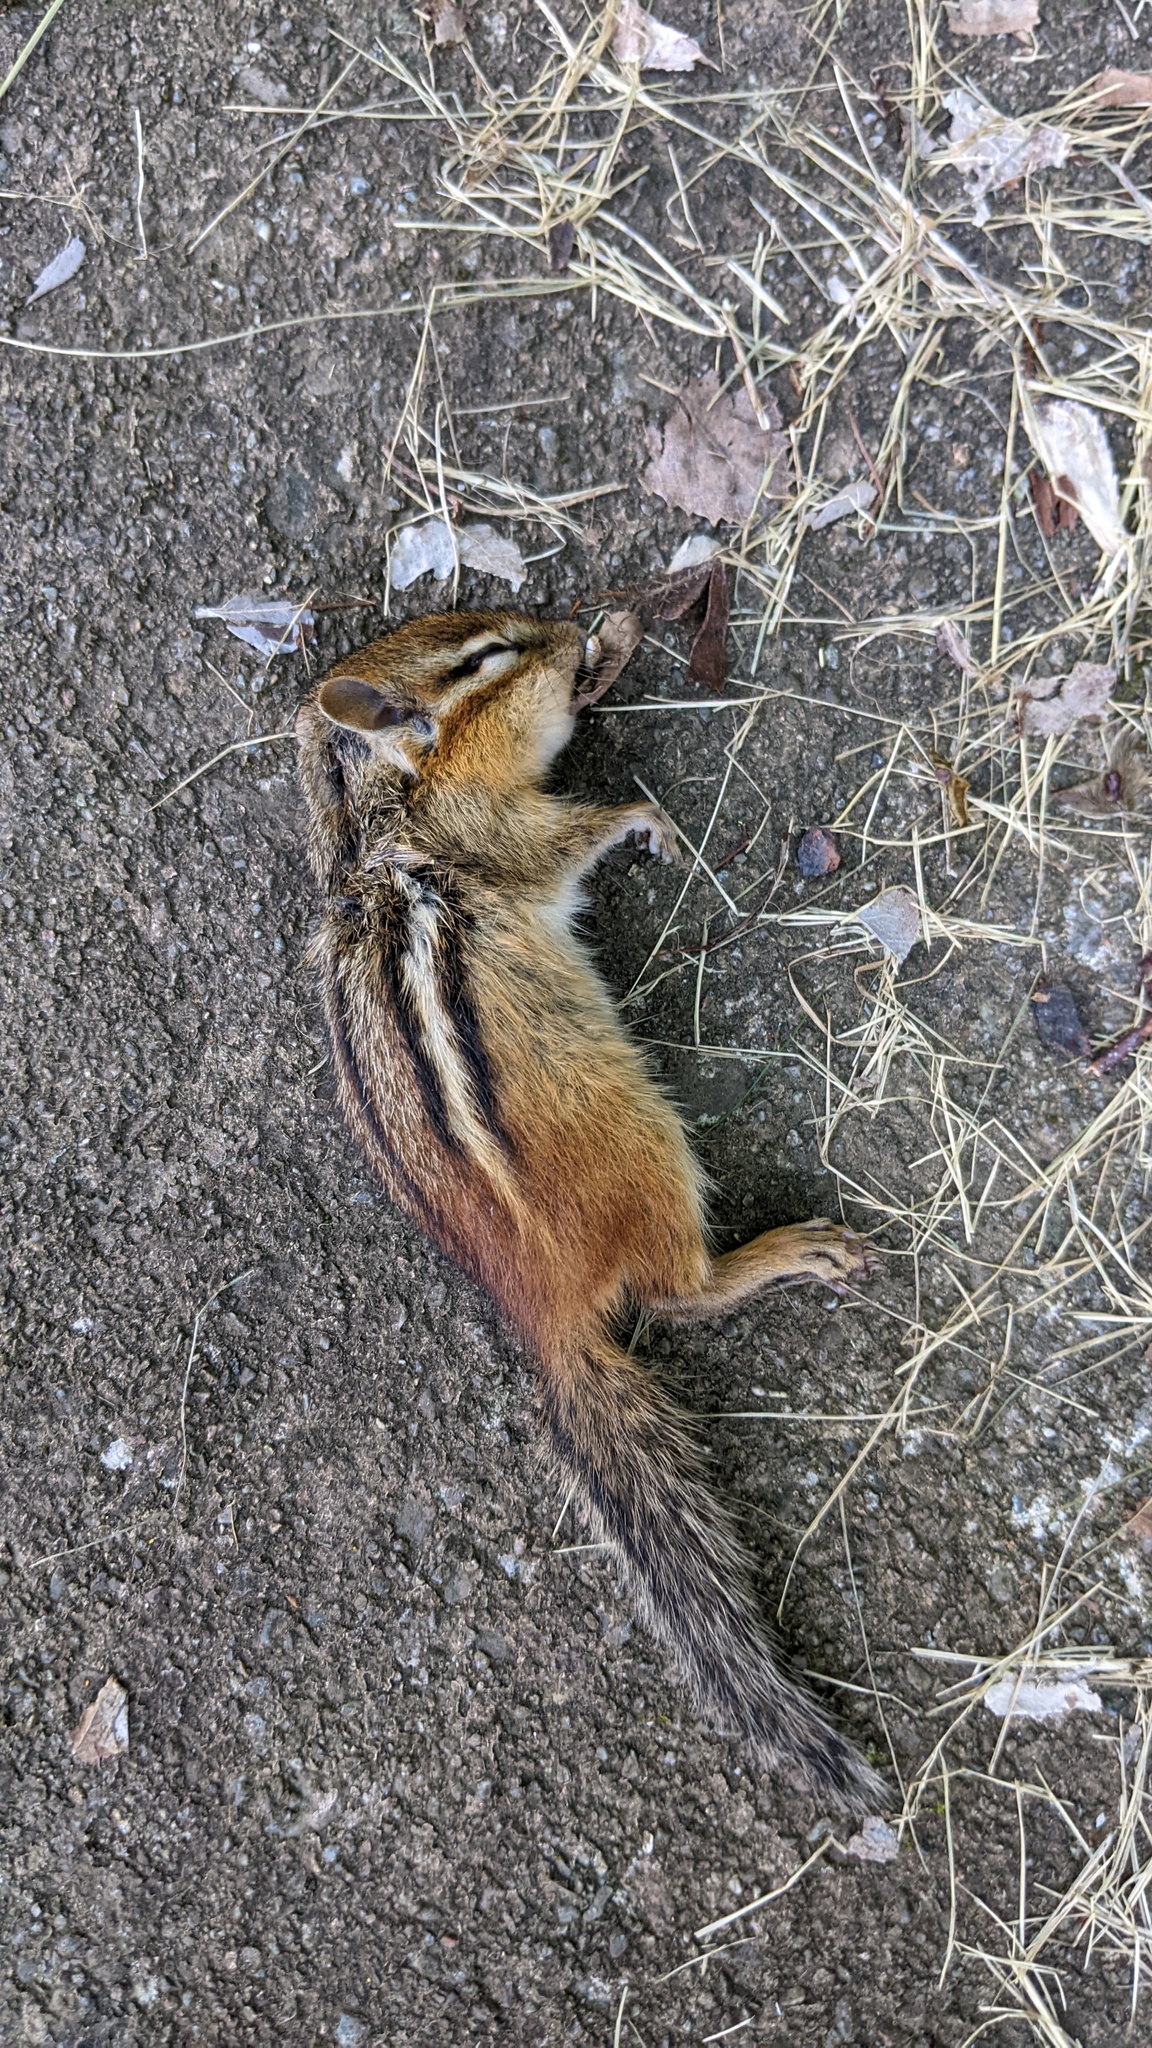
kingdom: Animalia
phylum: Chordata
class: Mammalia
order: Rodentia
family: Sciuridae
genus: Tamias
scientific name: Tamias striatus
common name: Eastern chipmunk
